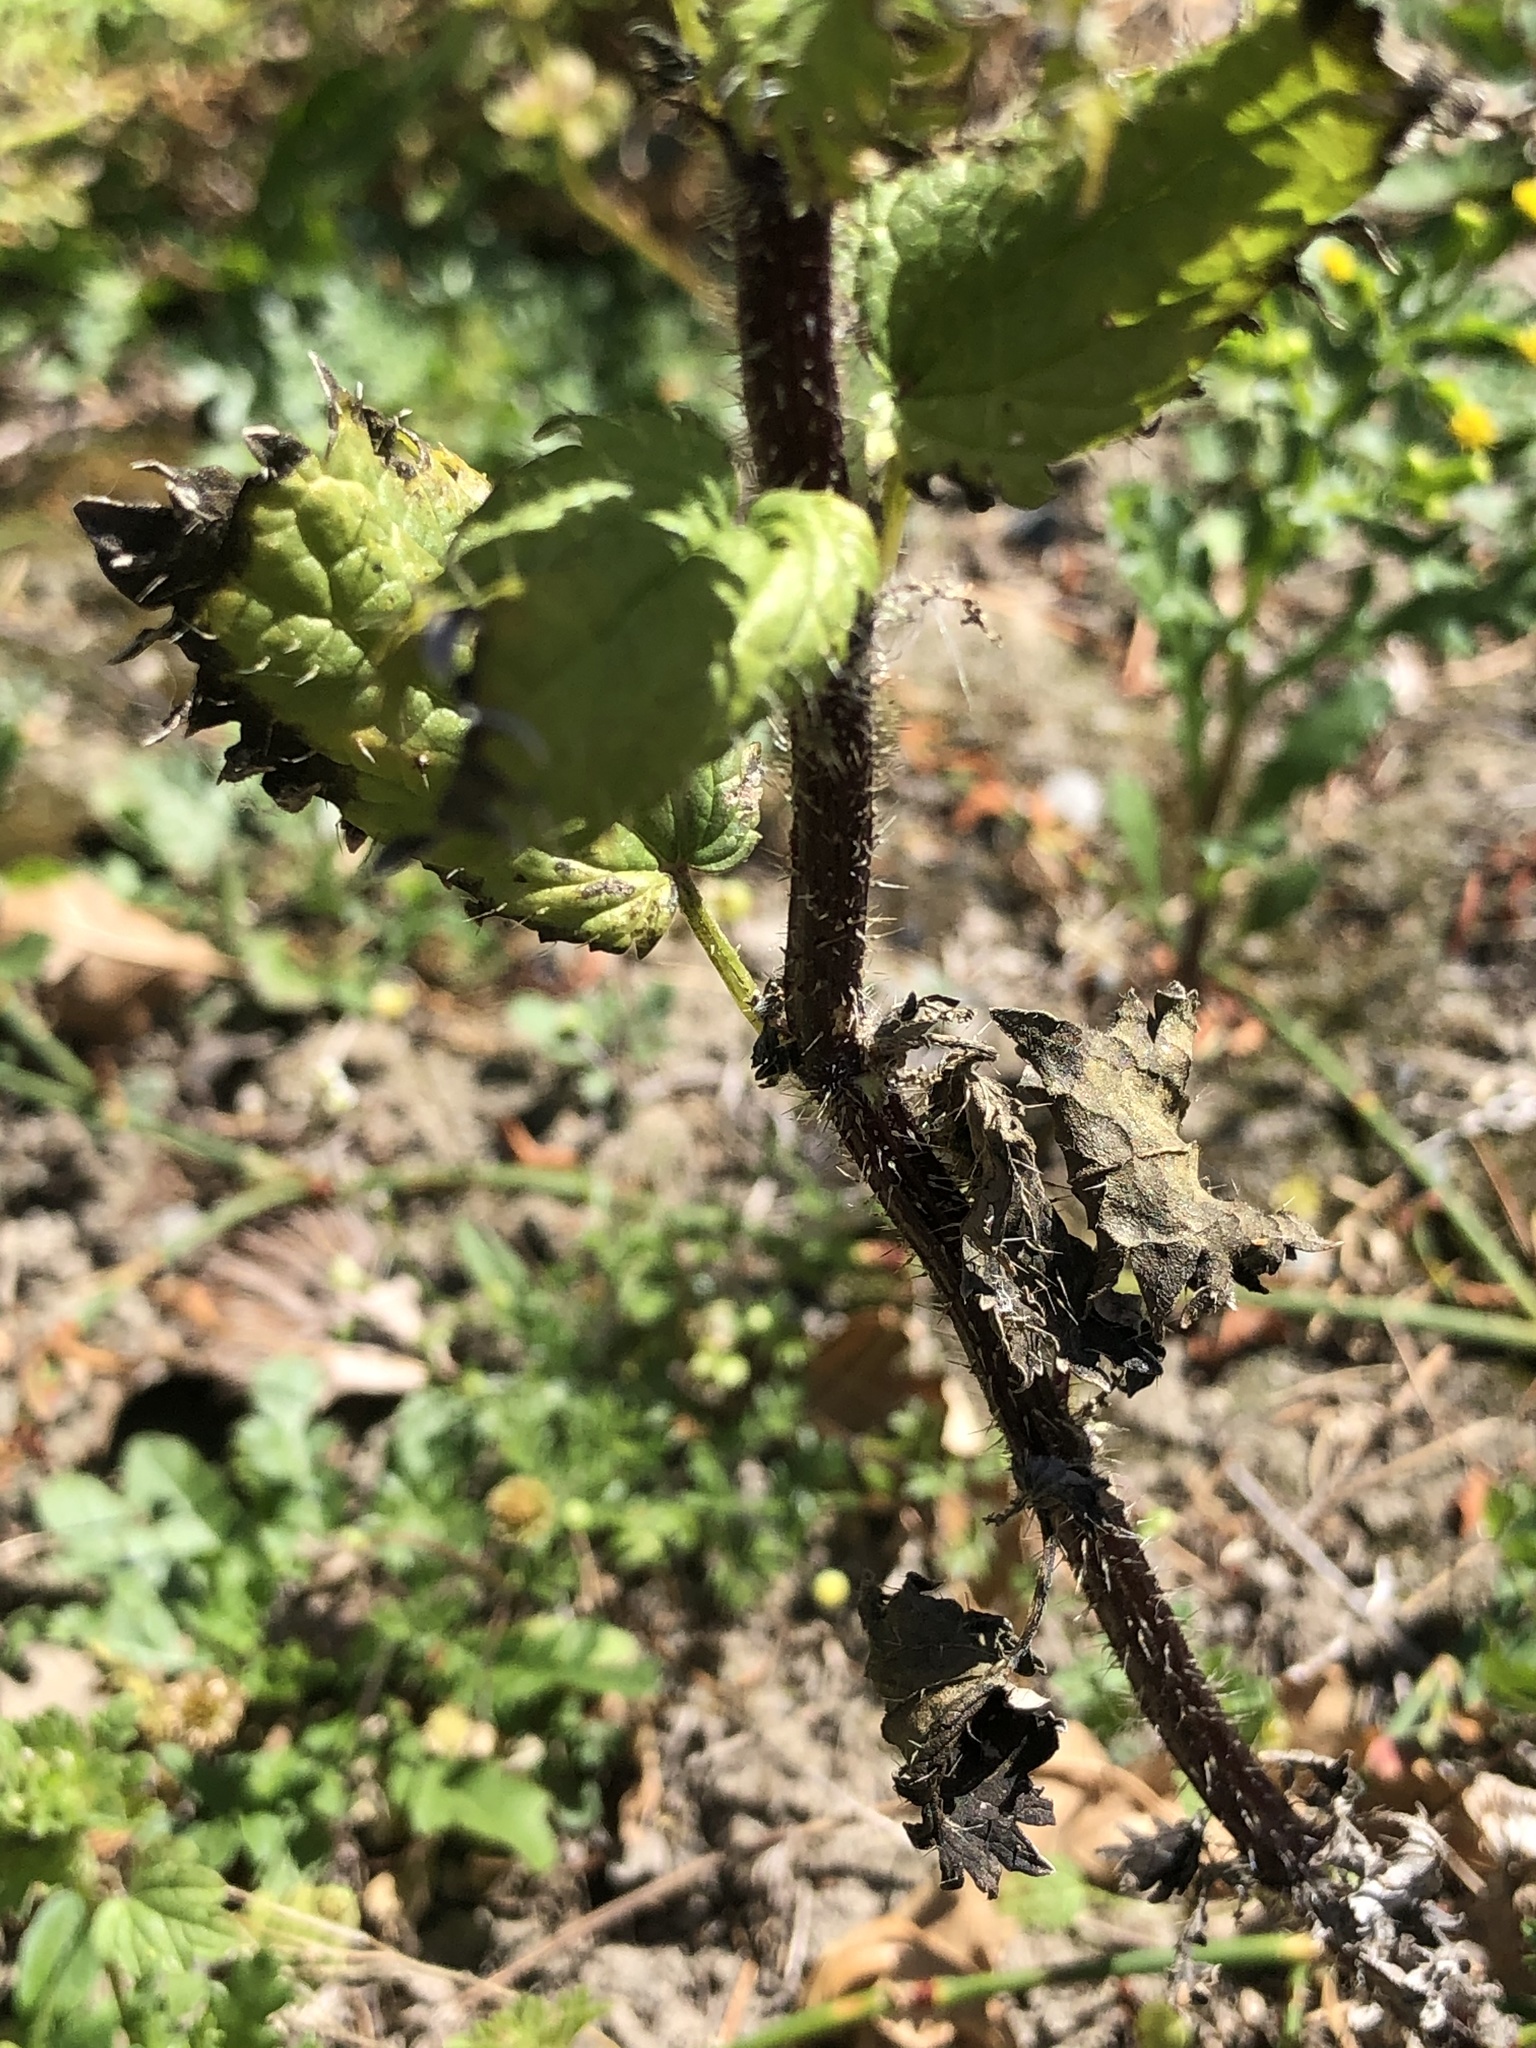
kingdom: Plantae
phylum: Tracheophyta
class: Magnoliopsida
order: Rosales
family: Urticaceae
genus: Urtica
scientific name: Urtica urens
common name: Dwarf nettle
